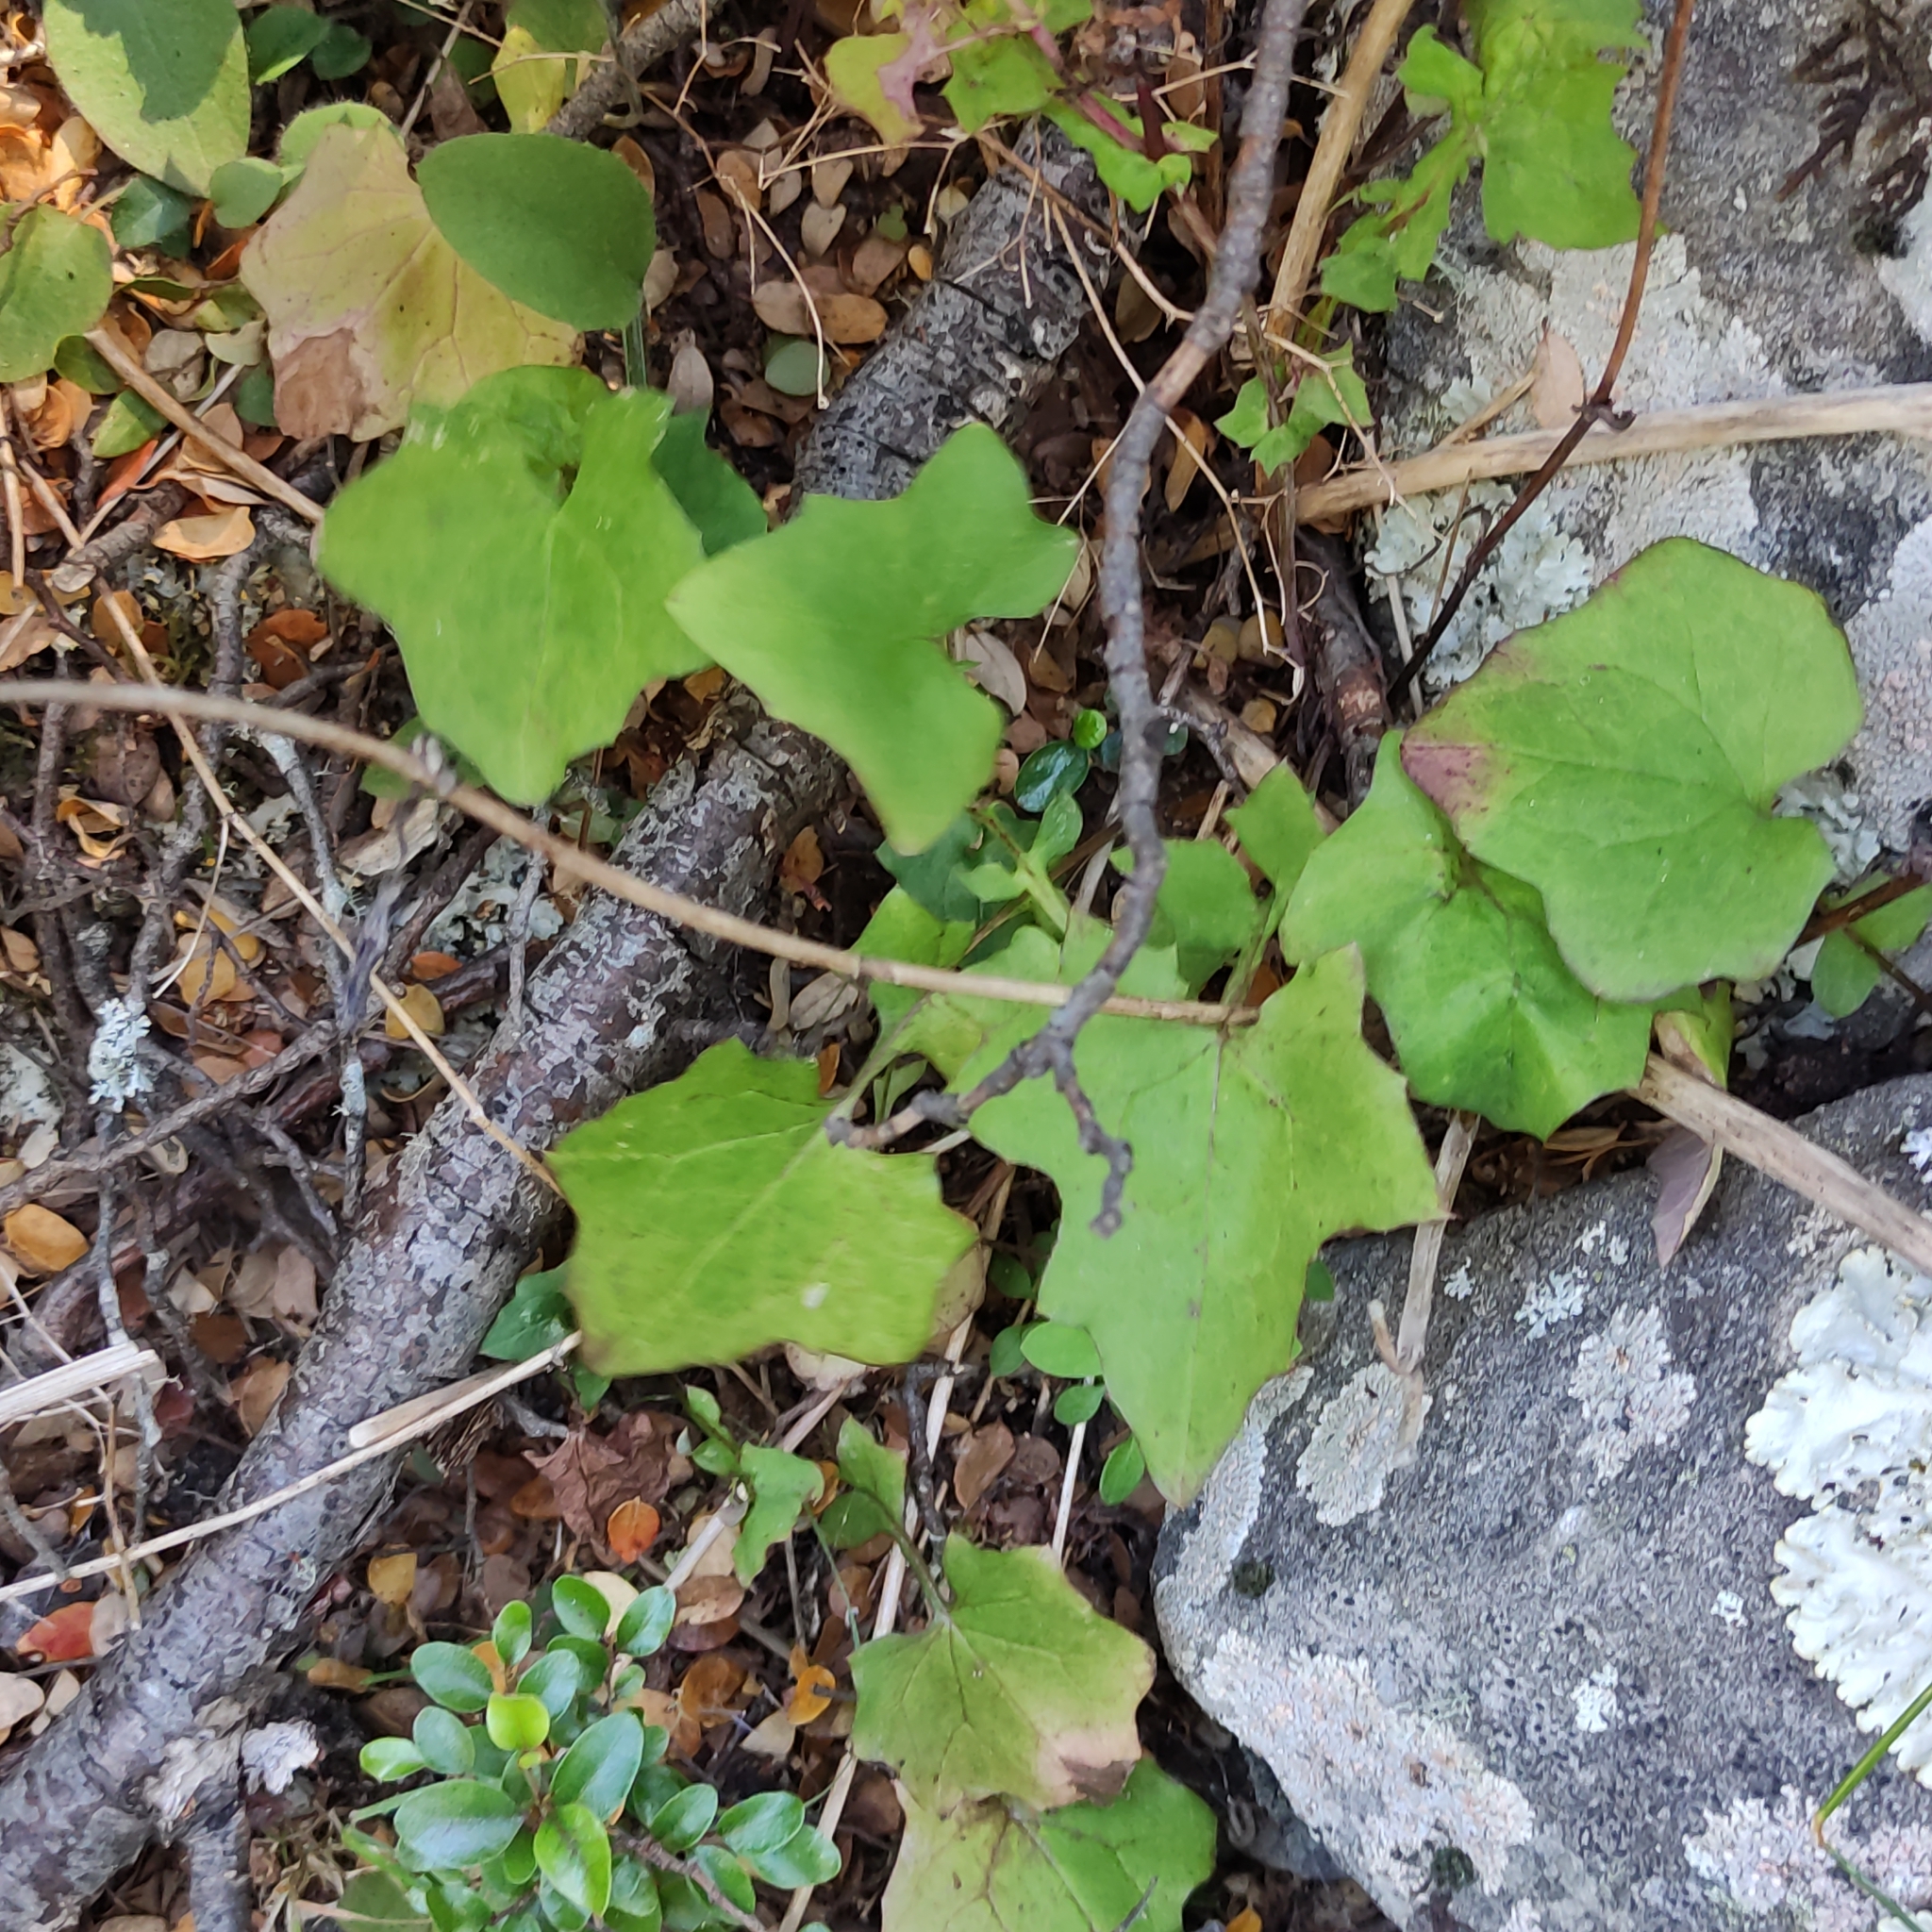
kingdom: Plantae
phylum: Tracheophyta
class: Magnoliopsida
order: Asterales
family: Asteraceae
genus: Mycelis
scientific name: Mycelis muralis
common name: Wall lettuce
